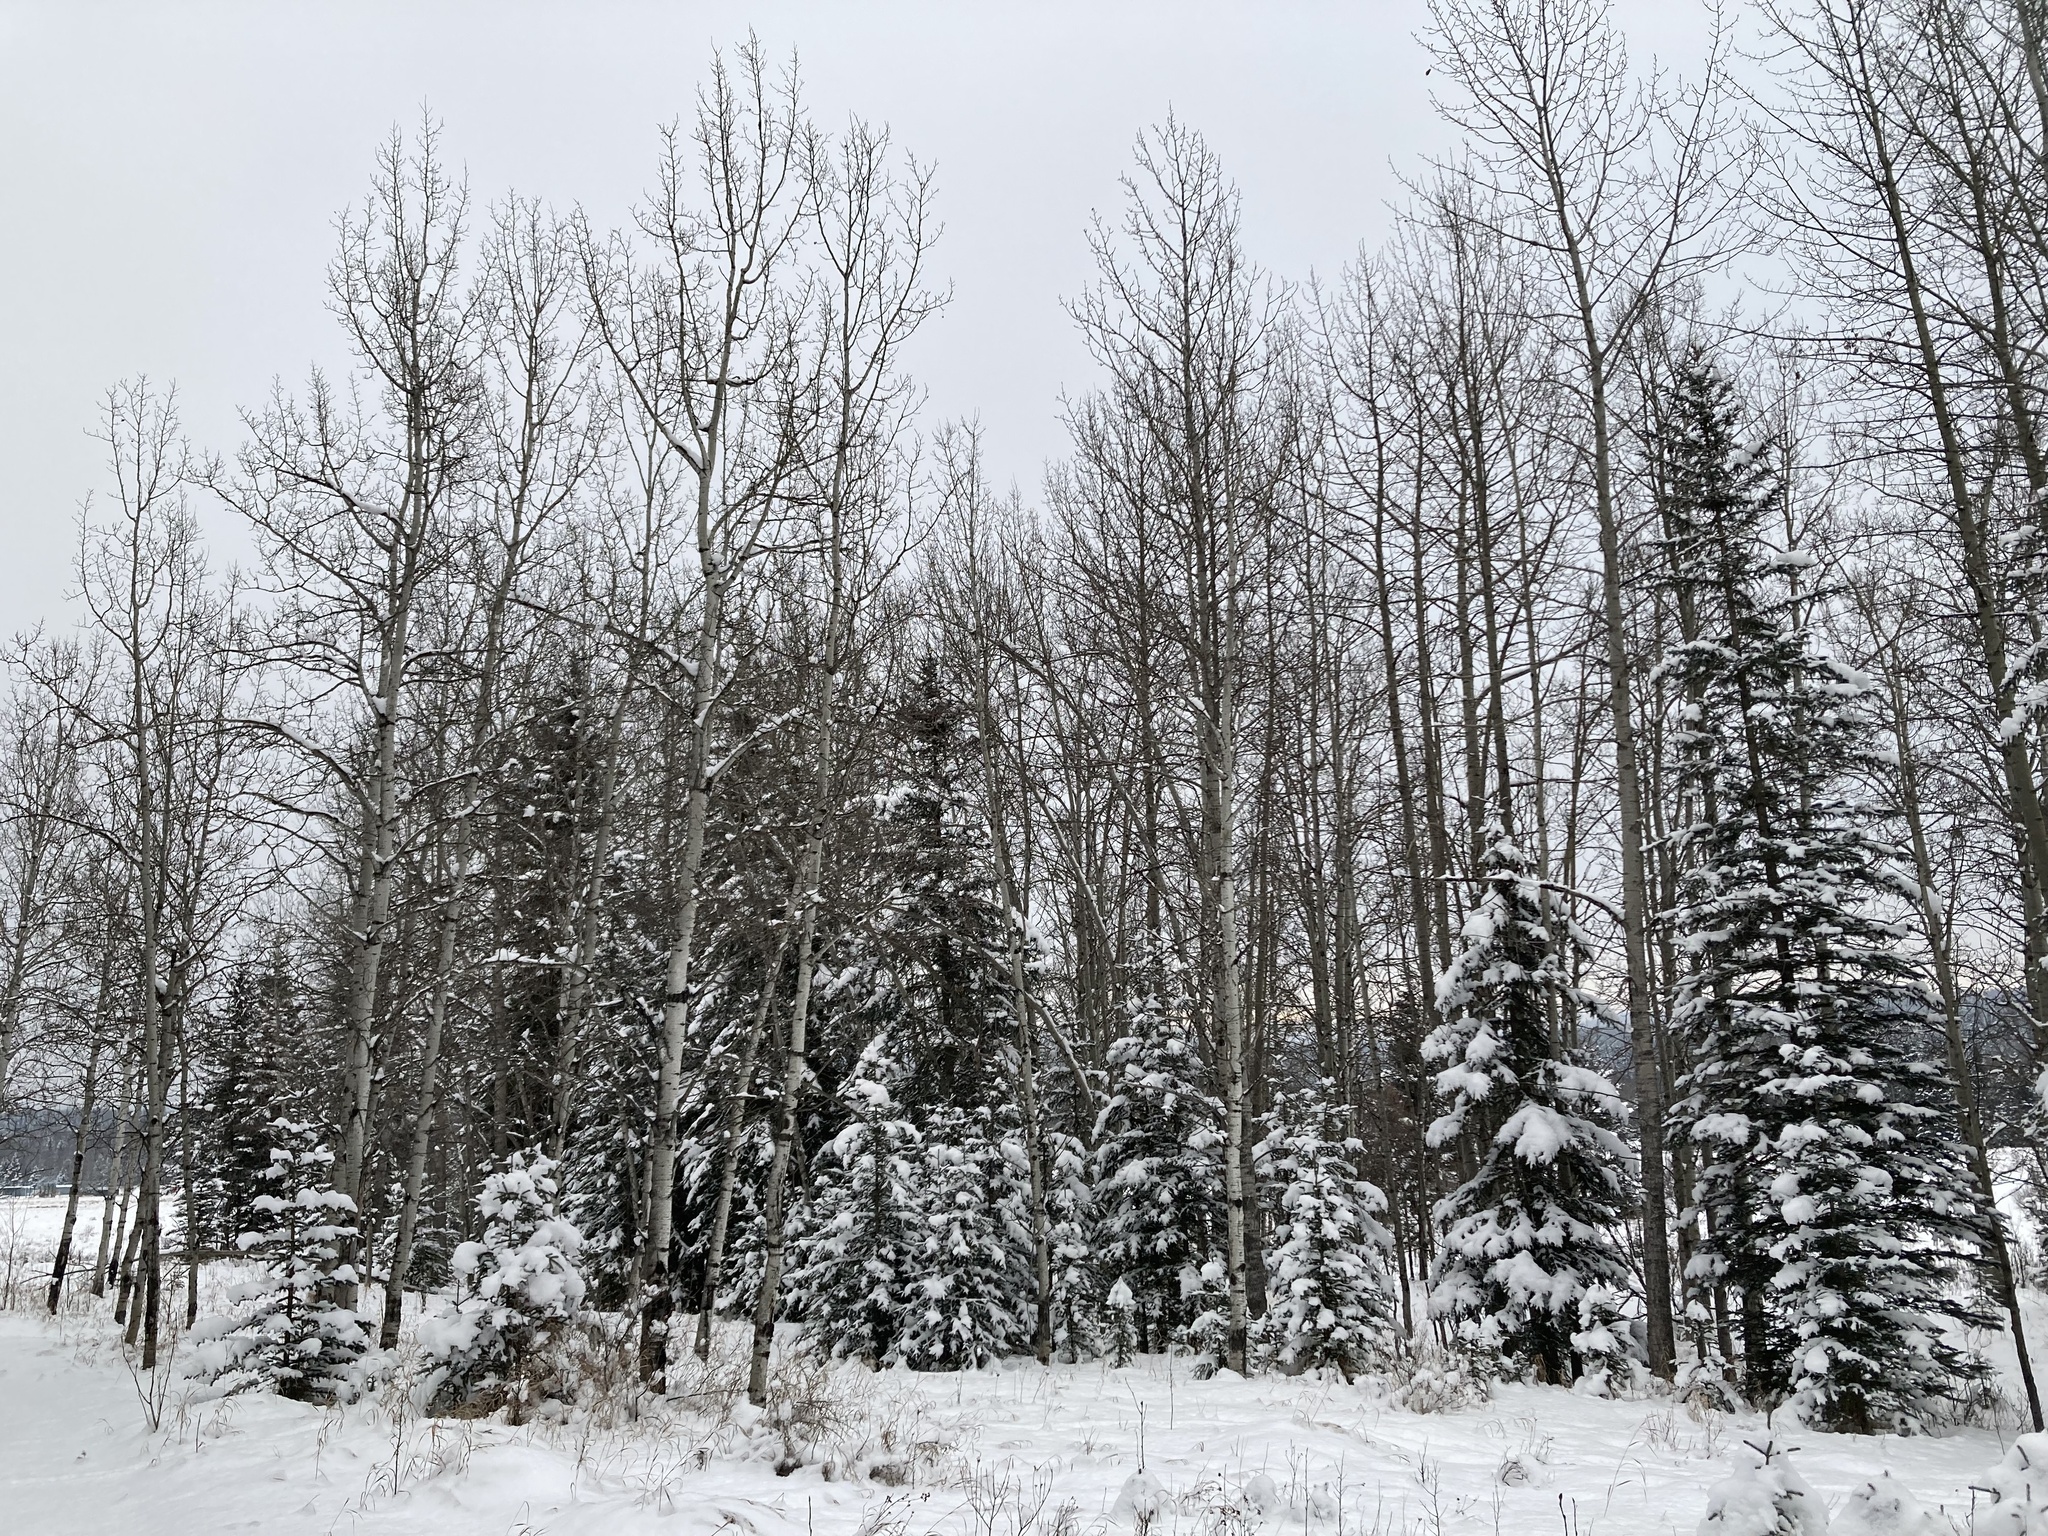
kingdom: Plantae
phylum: Tracheophyta
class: Magnoliopsida
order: Malpighiales
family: Salicaceae
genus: Populus
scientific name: Populus tremuloides
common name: Quaking aspen
